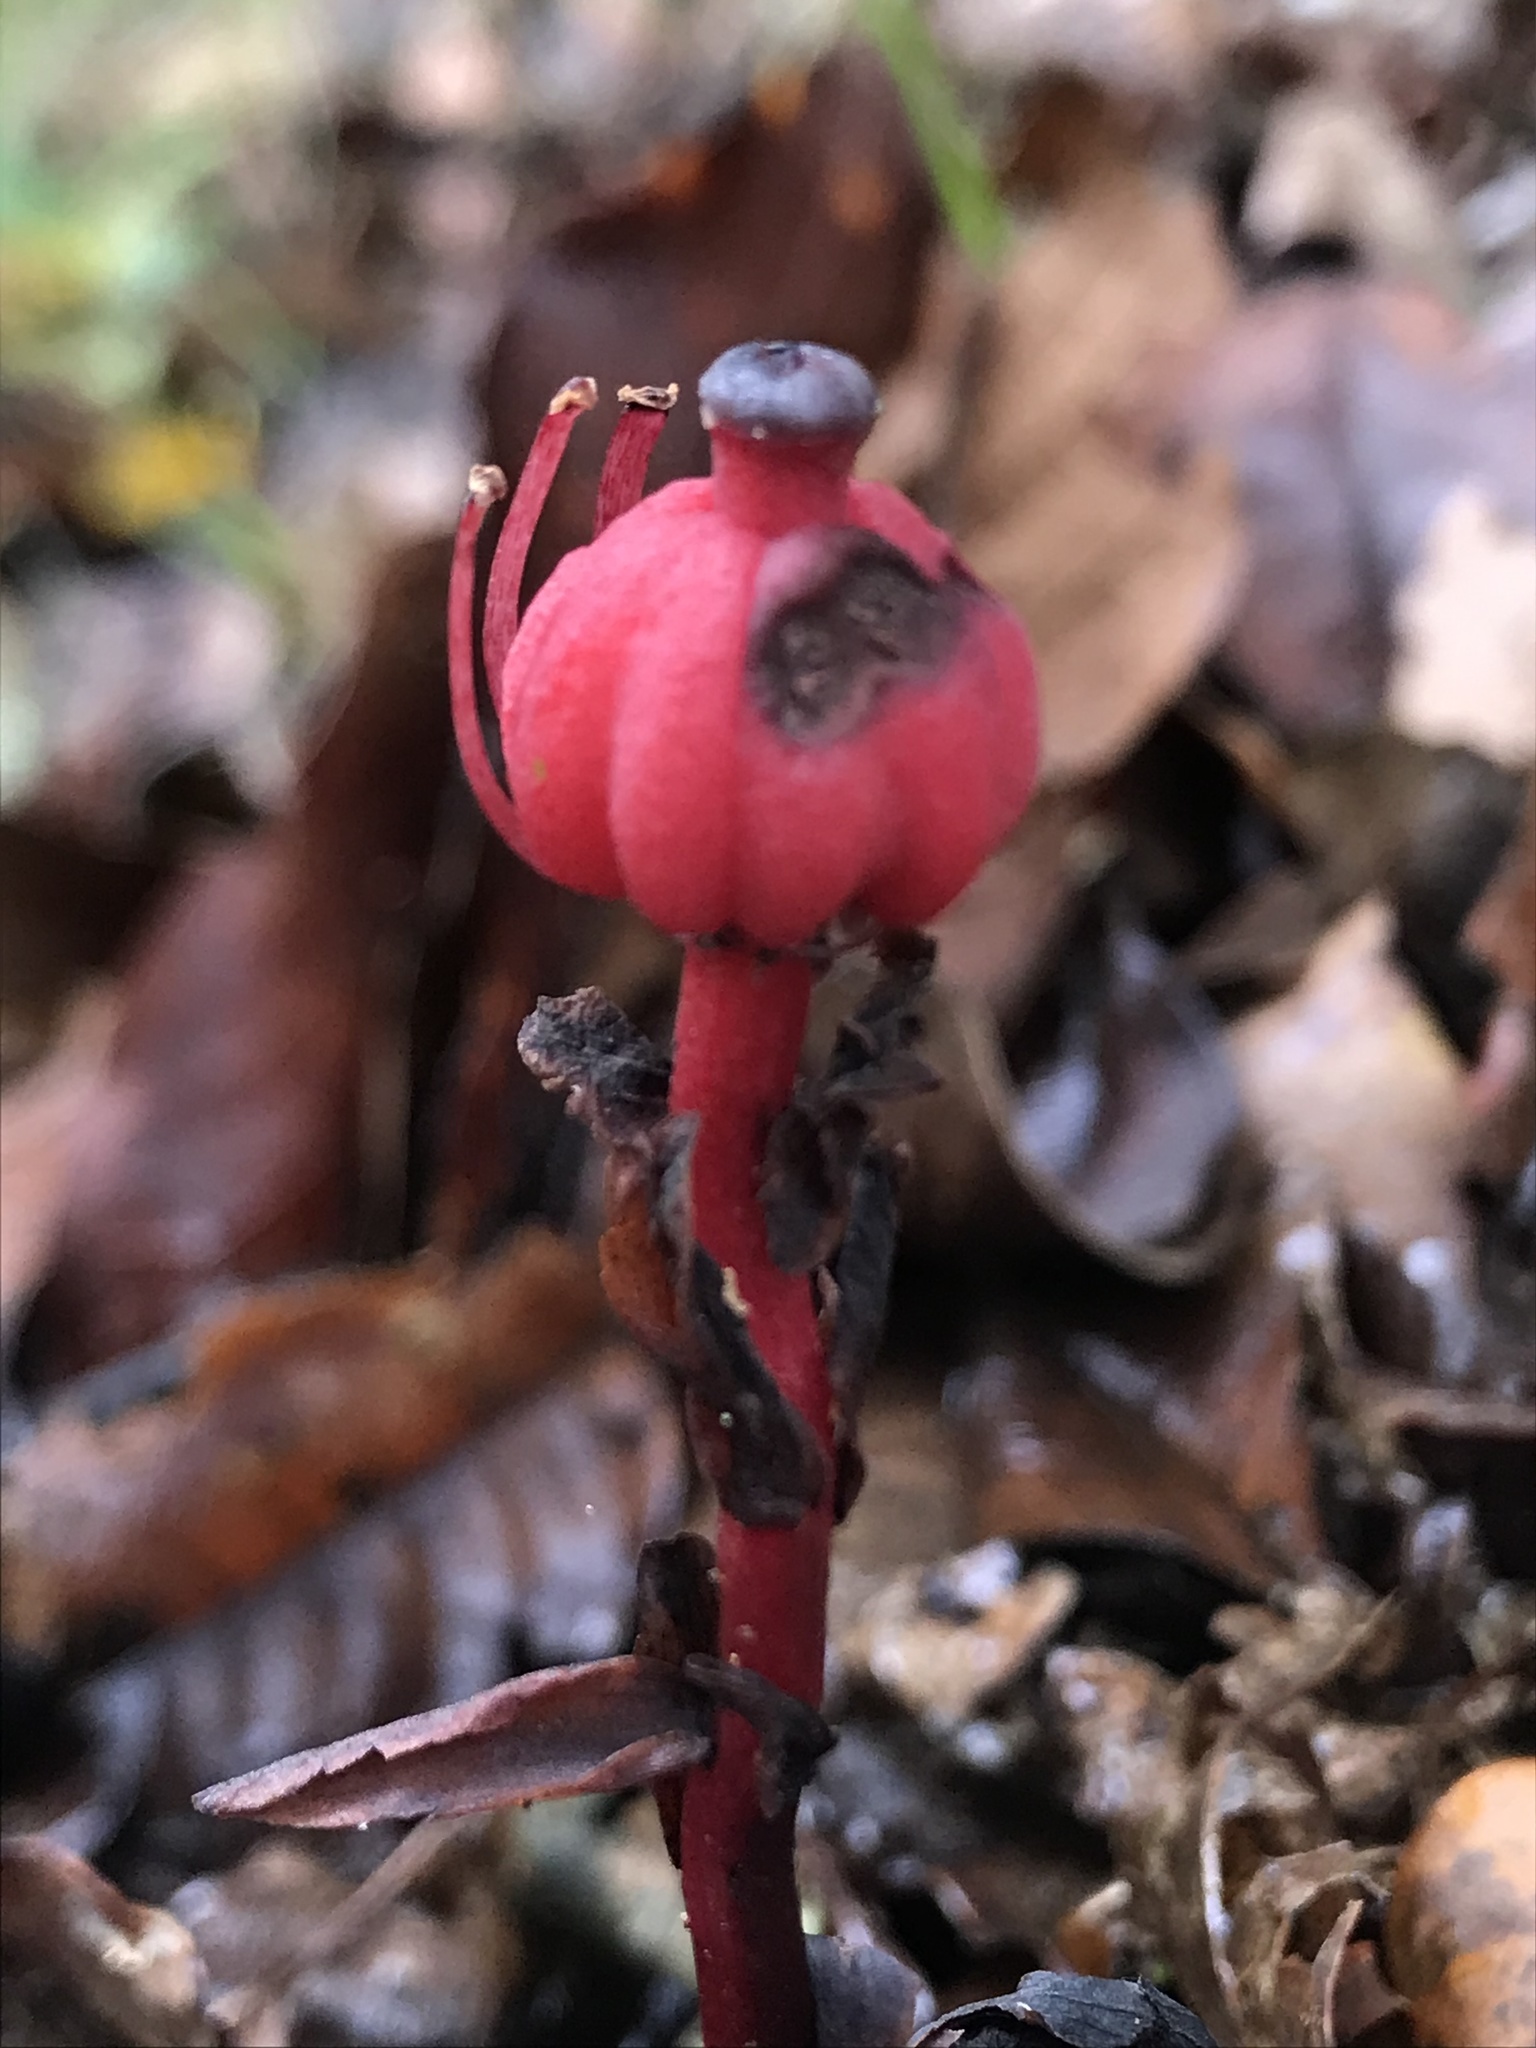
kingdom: Plantae
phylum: Tracheophyta
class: Magnoliopsida
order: Ericales
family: Ericaceae
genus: Monotropa
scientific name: Monotropa coccinea
